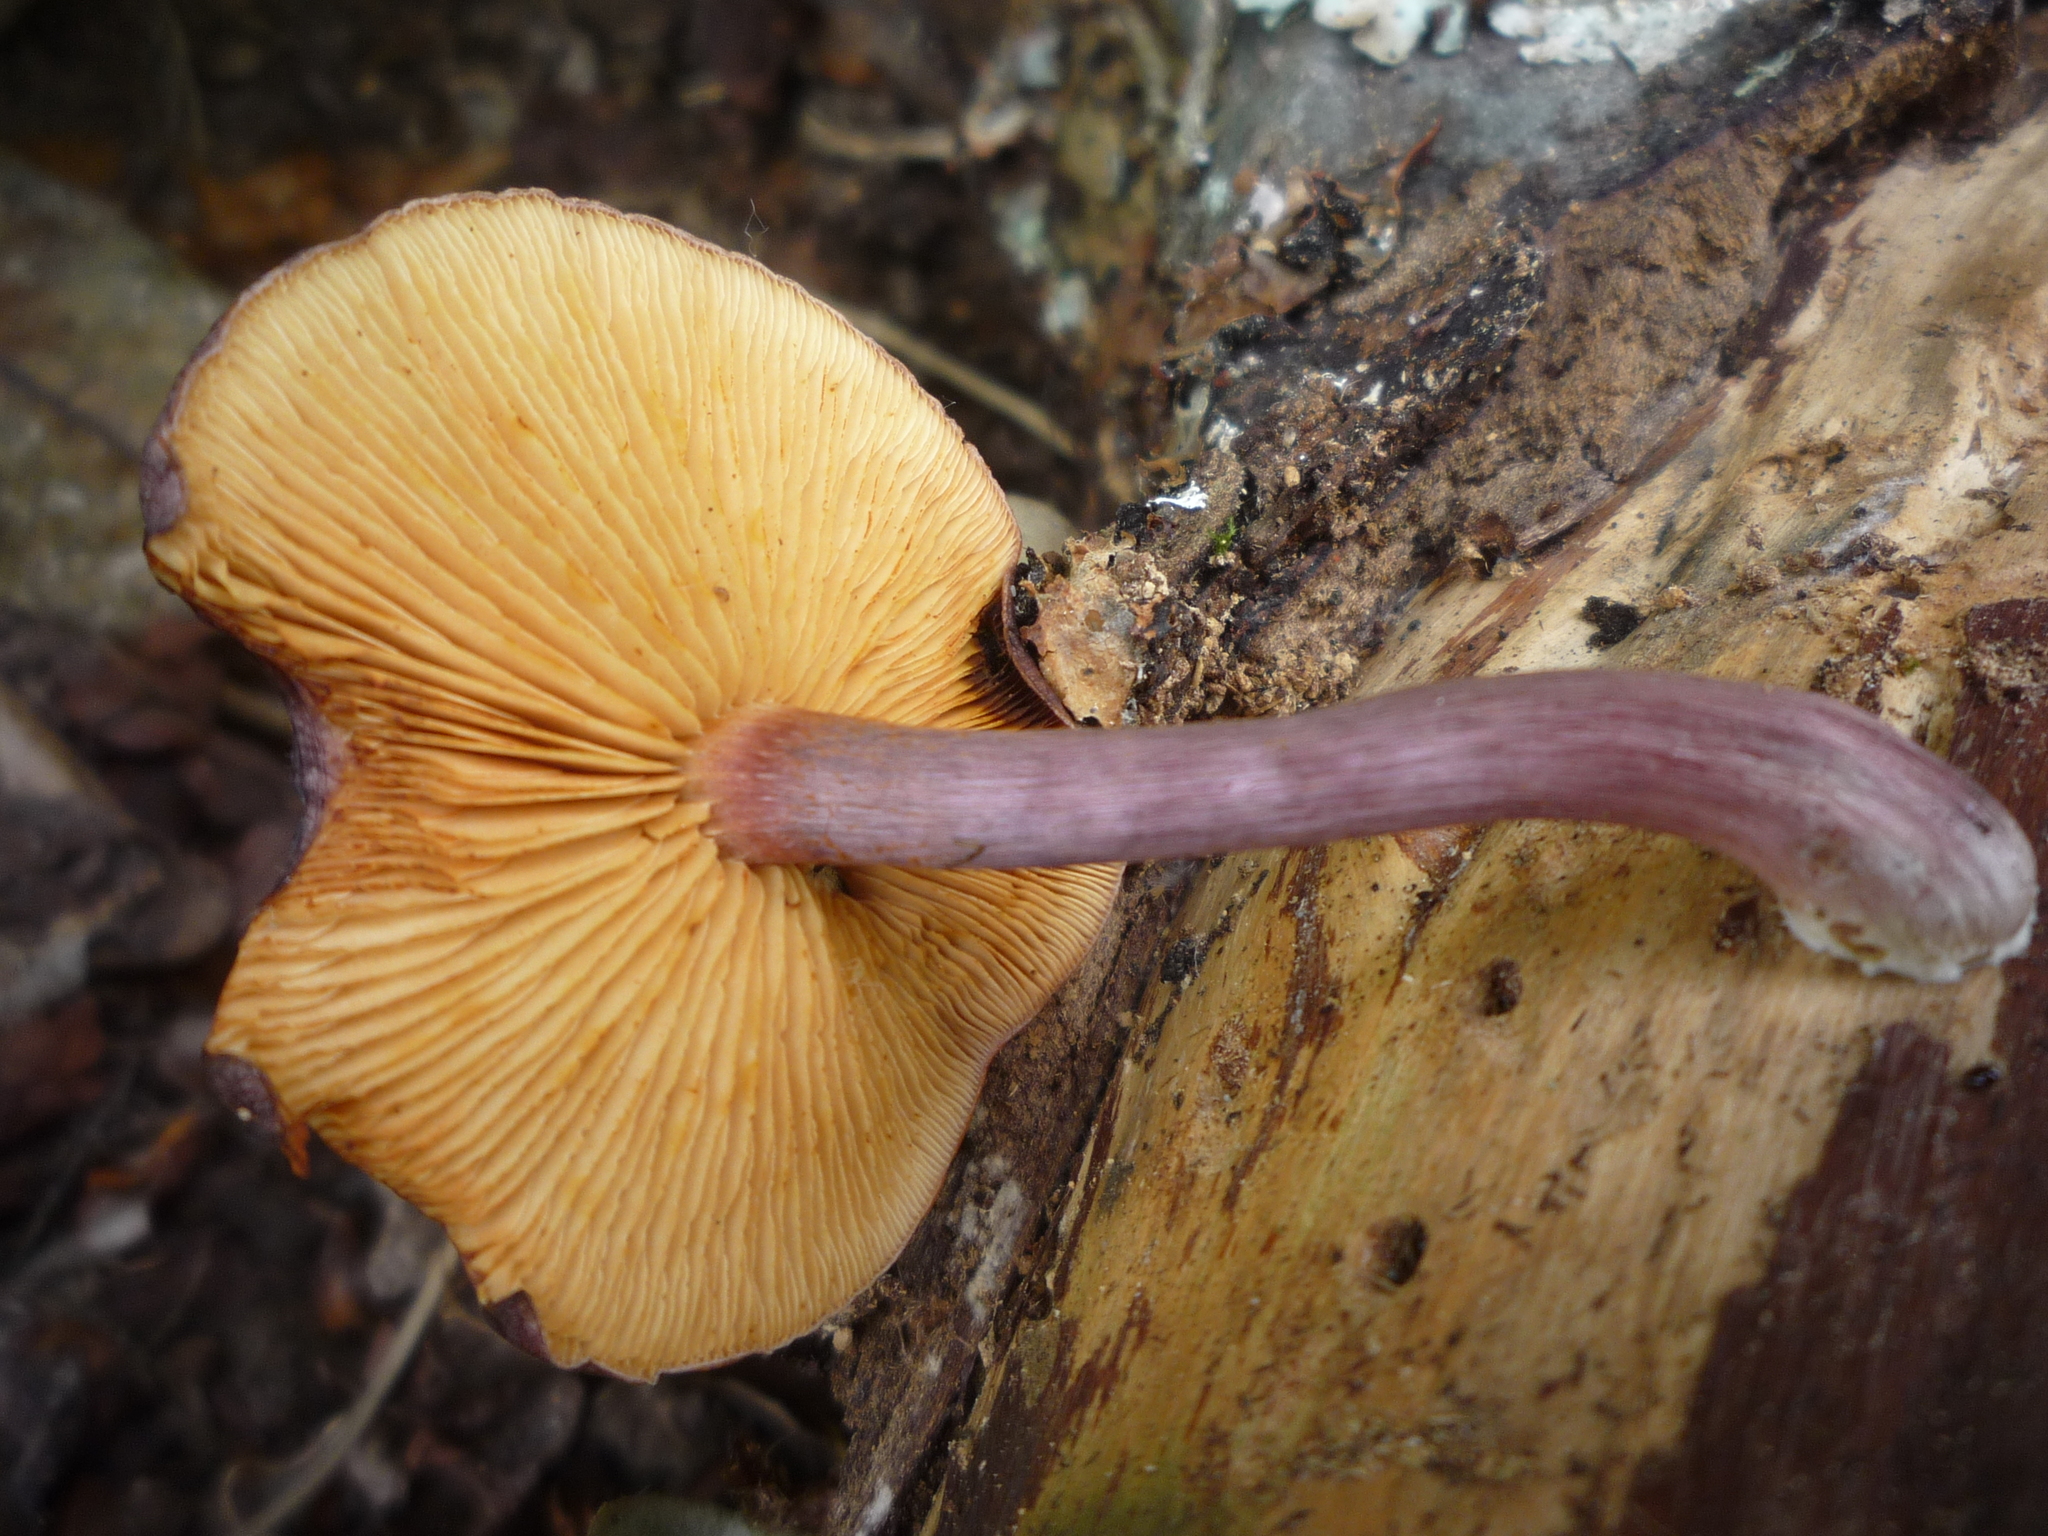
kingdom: Fungi
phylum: Basidiomycota
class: Agaricomycetes
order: Agaricales
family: Hymenogastraceae
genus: Gymnopilus
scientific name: Gymnopilus purpuratus
